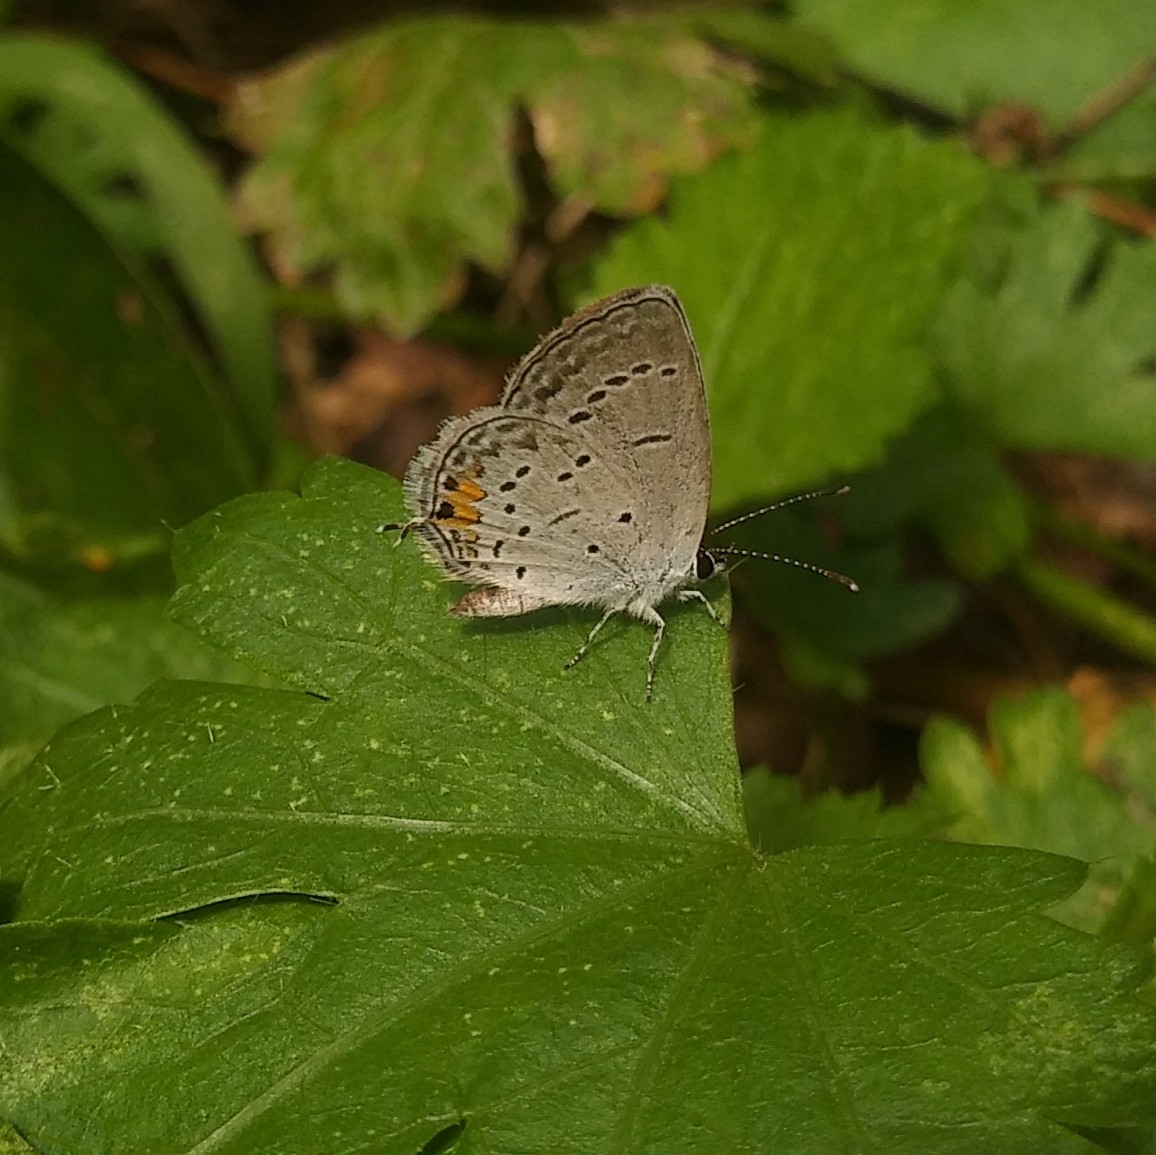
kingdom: Animalia
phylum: Arthropoda
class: Insecta
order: Lepidoptera
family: Lycaenidae
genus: Elkalyce
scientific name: Elkalyce comyntas
